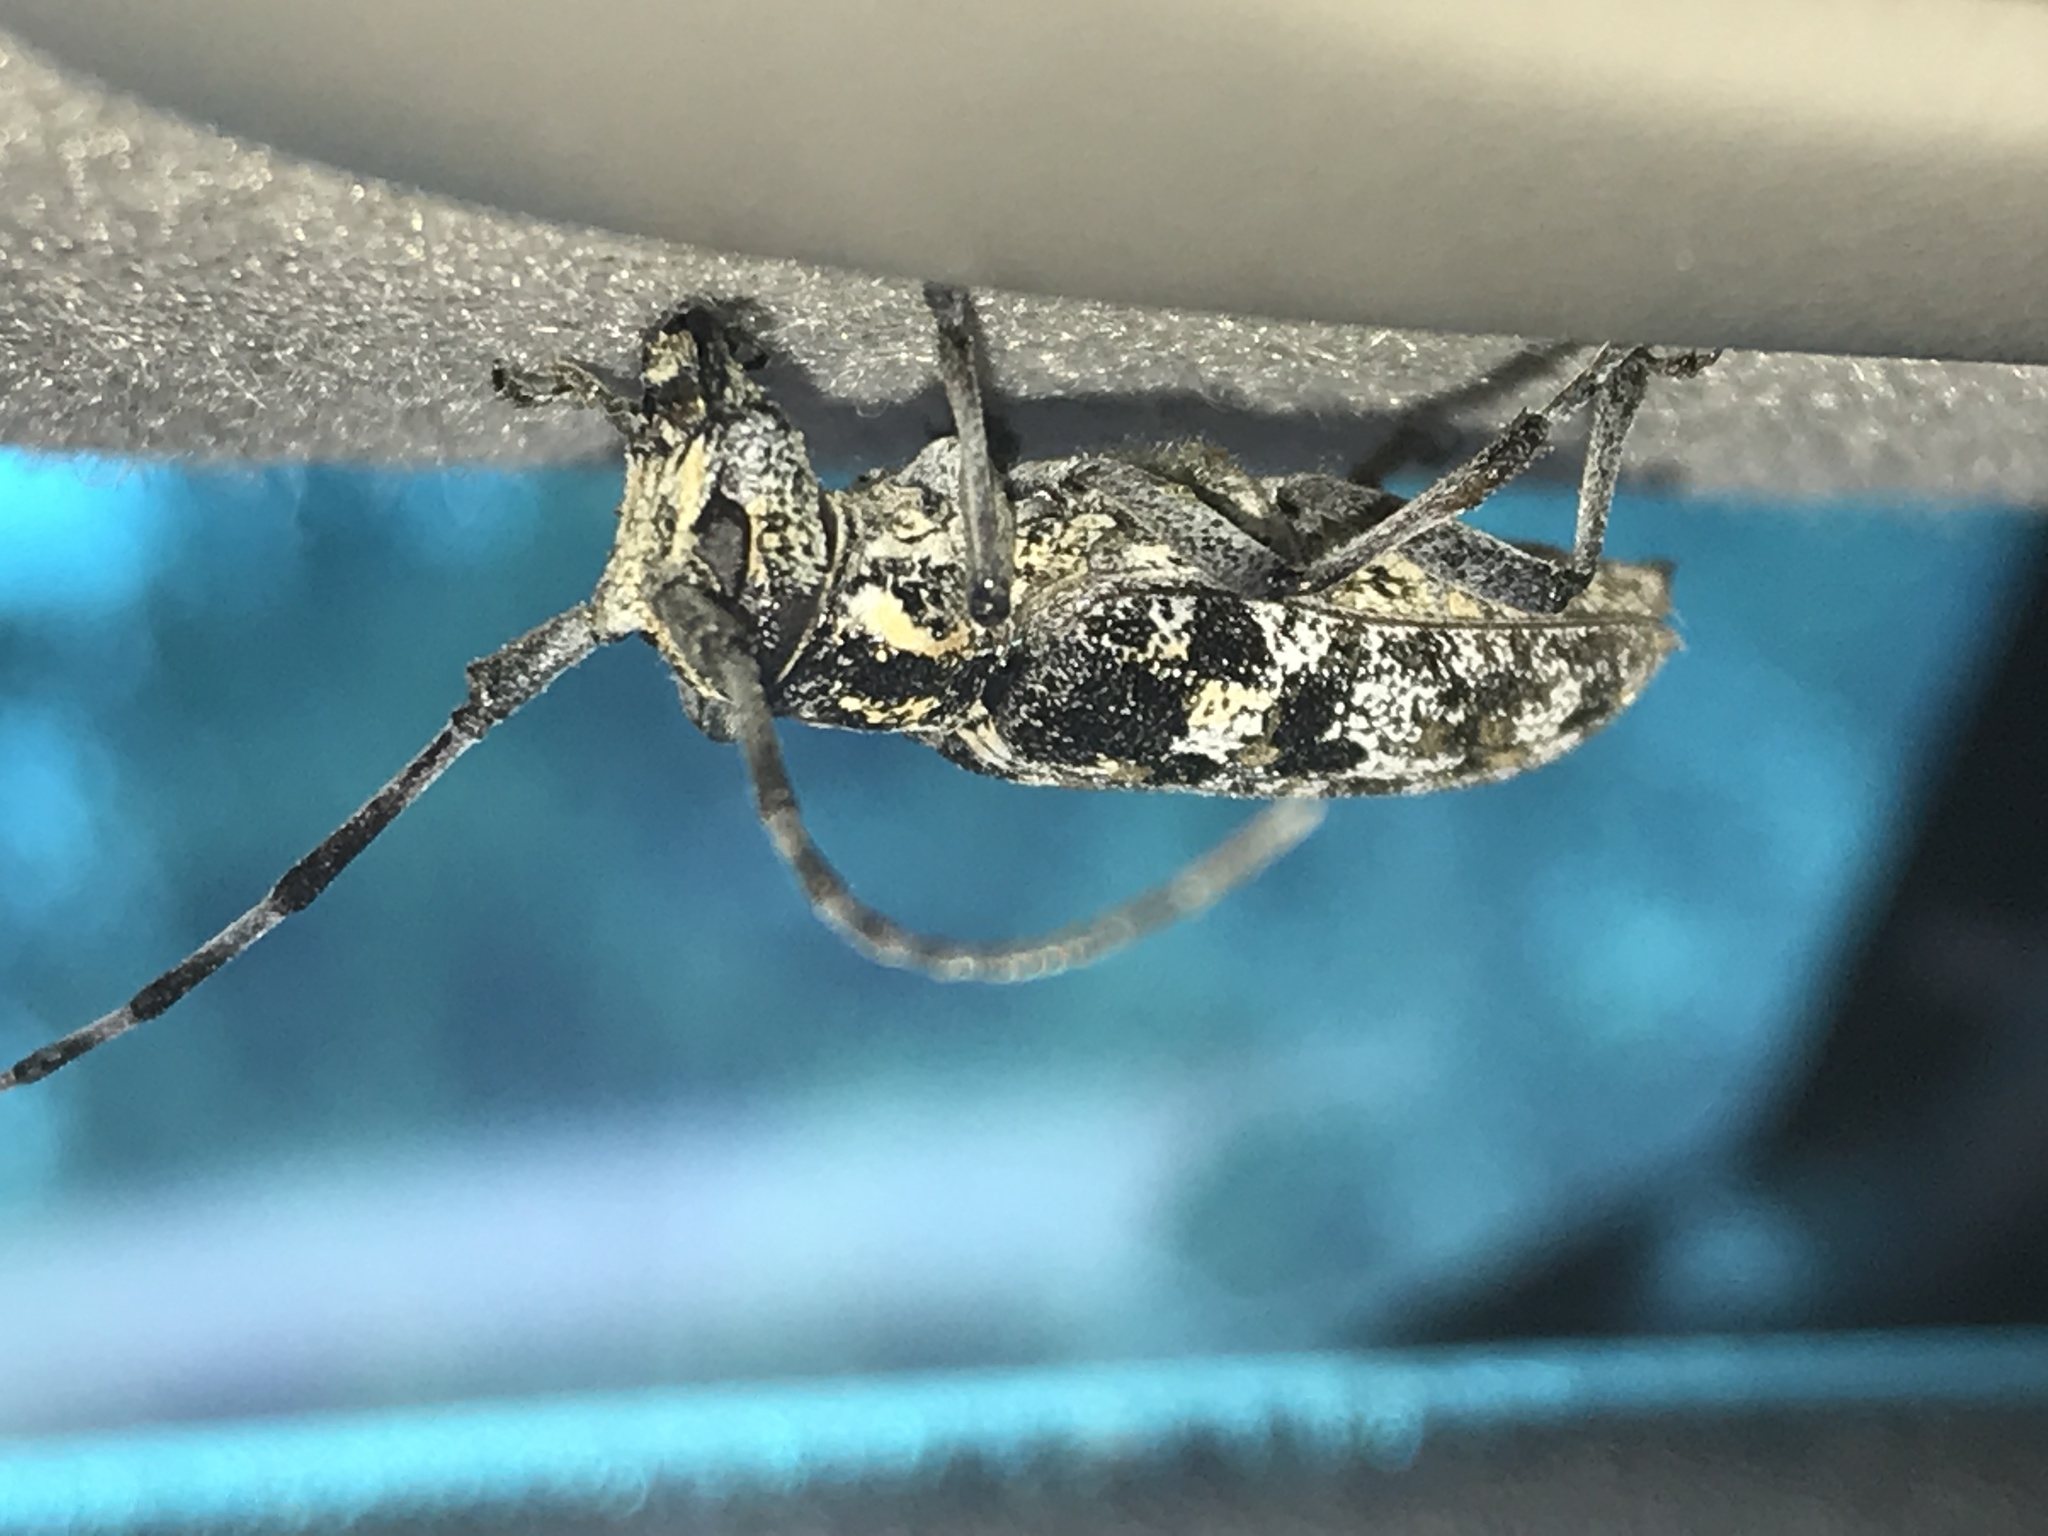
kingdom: Animalia
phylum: Arthropoda
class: Insecta
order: Coleoptera
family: Cerambycidae
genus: Monochamus
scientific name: Monochamus clamator
